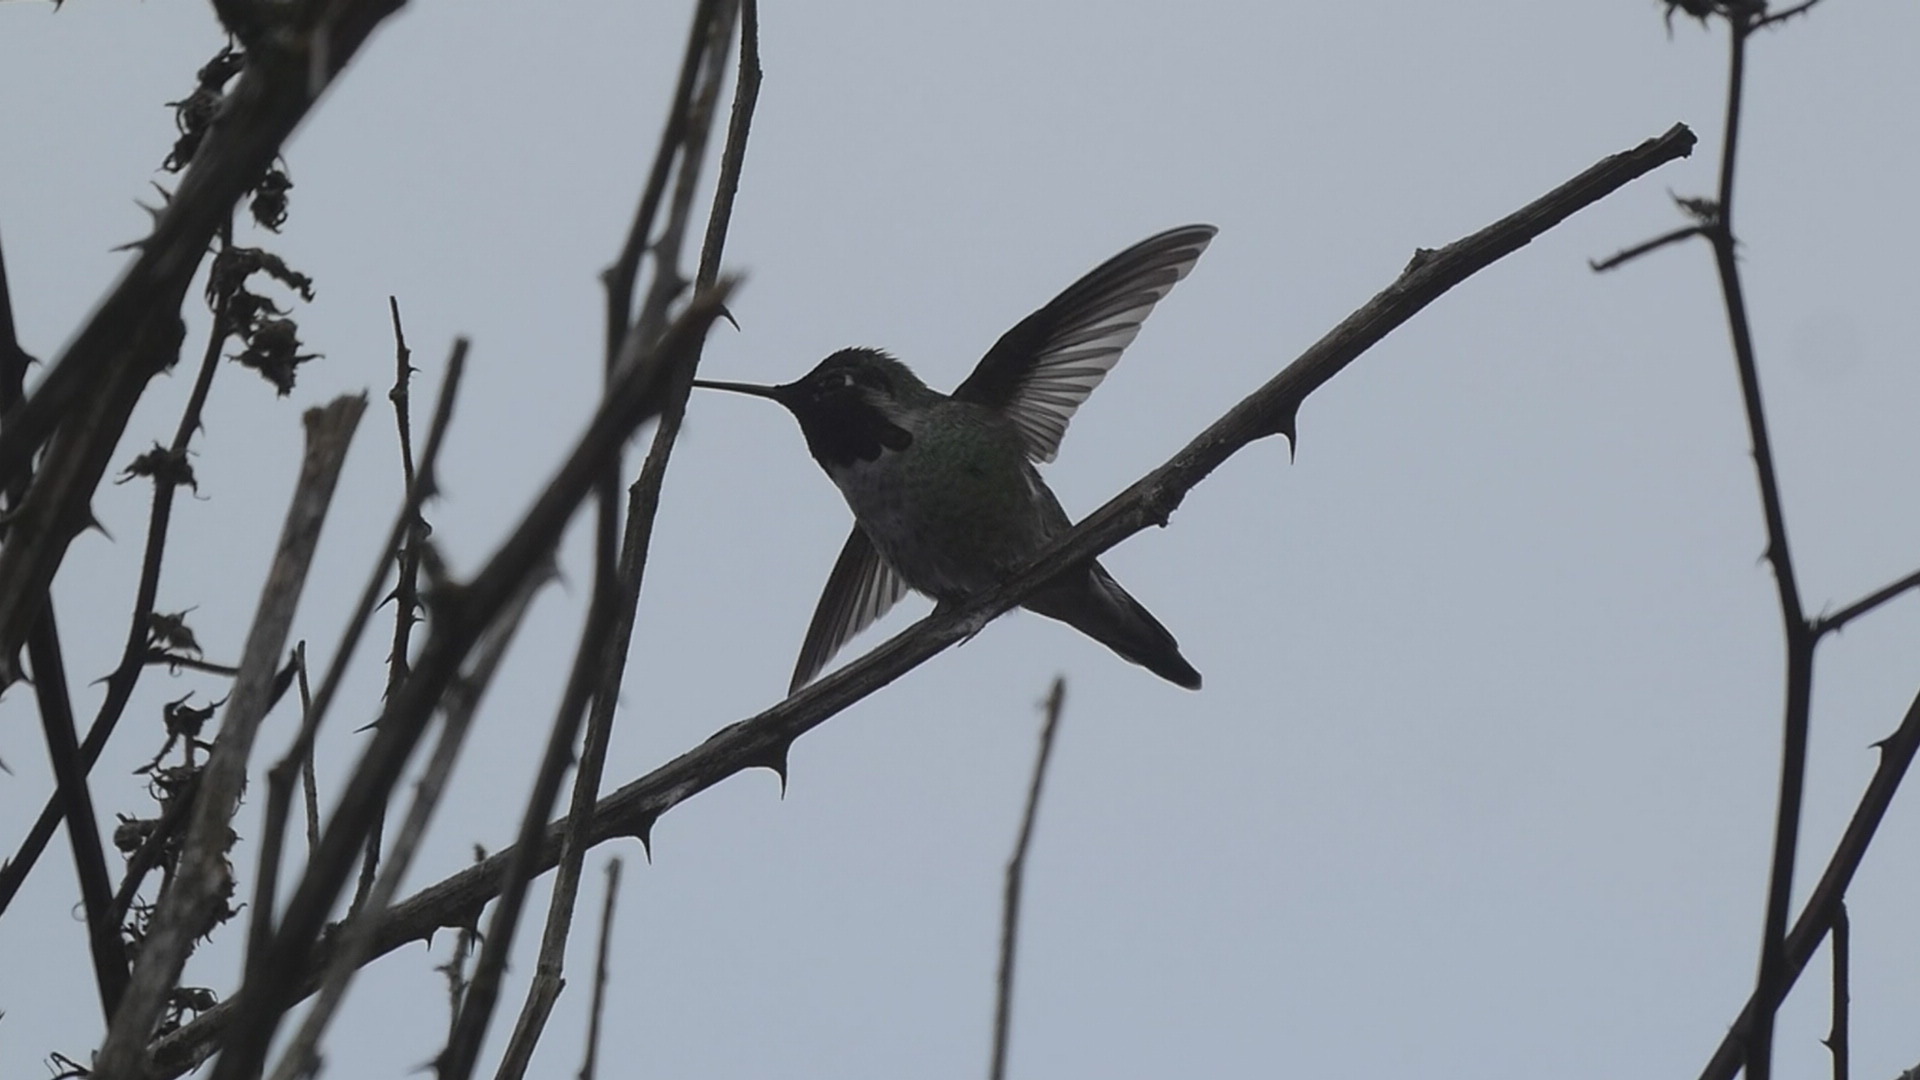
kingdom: Animalia
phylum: Chordata
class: Aves
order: Apodiformes
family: Trochilidae
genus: Calypte
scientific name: Calypte anna
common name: Anna's hummingbird
